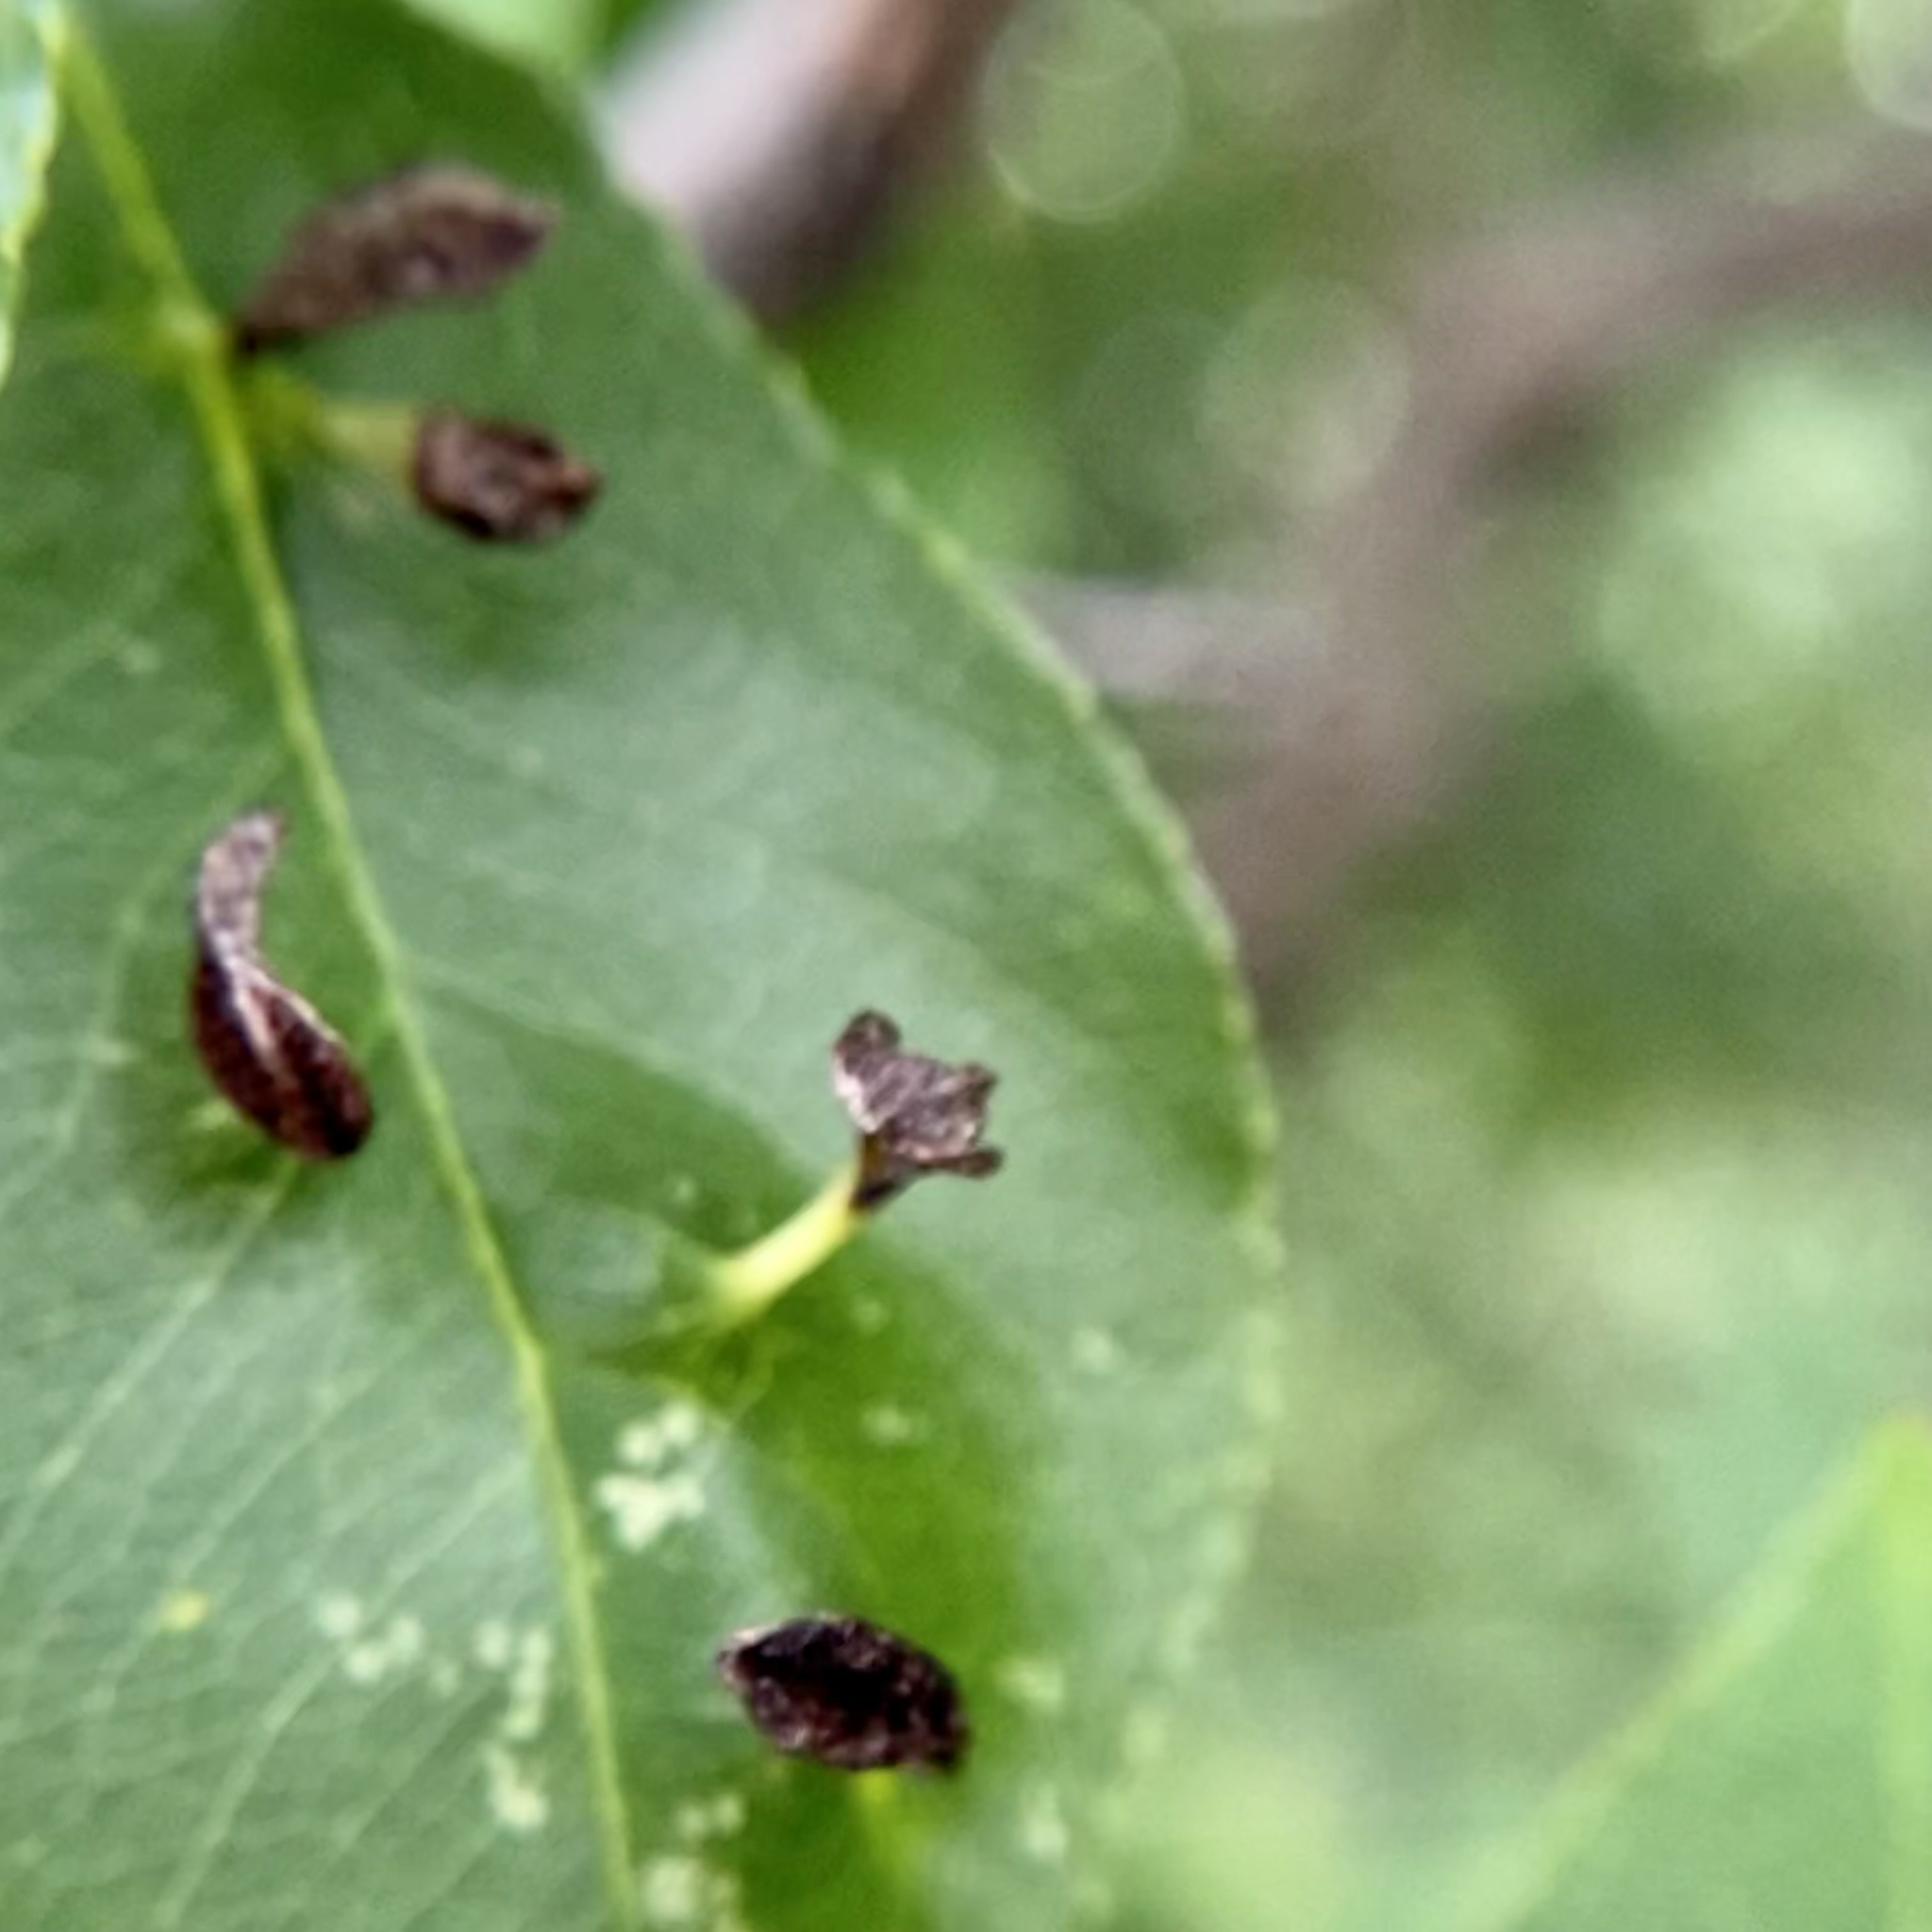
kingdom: Animalia
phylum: Arthropoda
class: Arachnida
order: Trombidiformes
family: Eriophyidae
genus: Eriophyes
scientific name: Eriophyes
